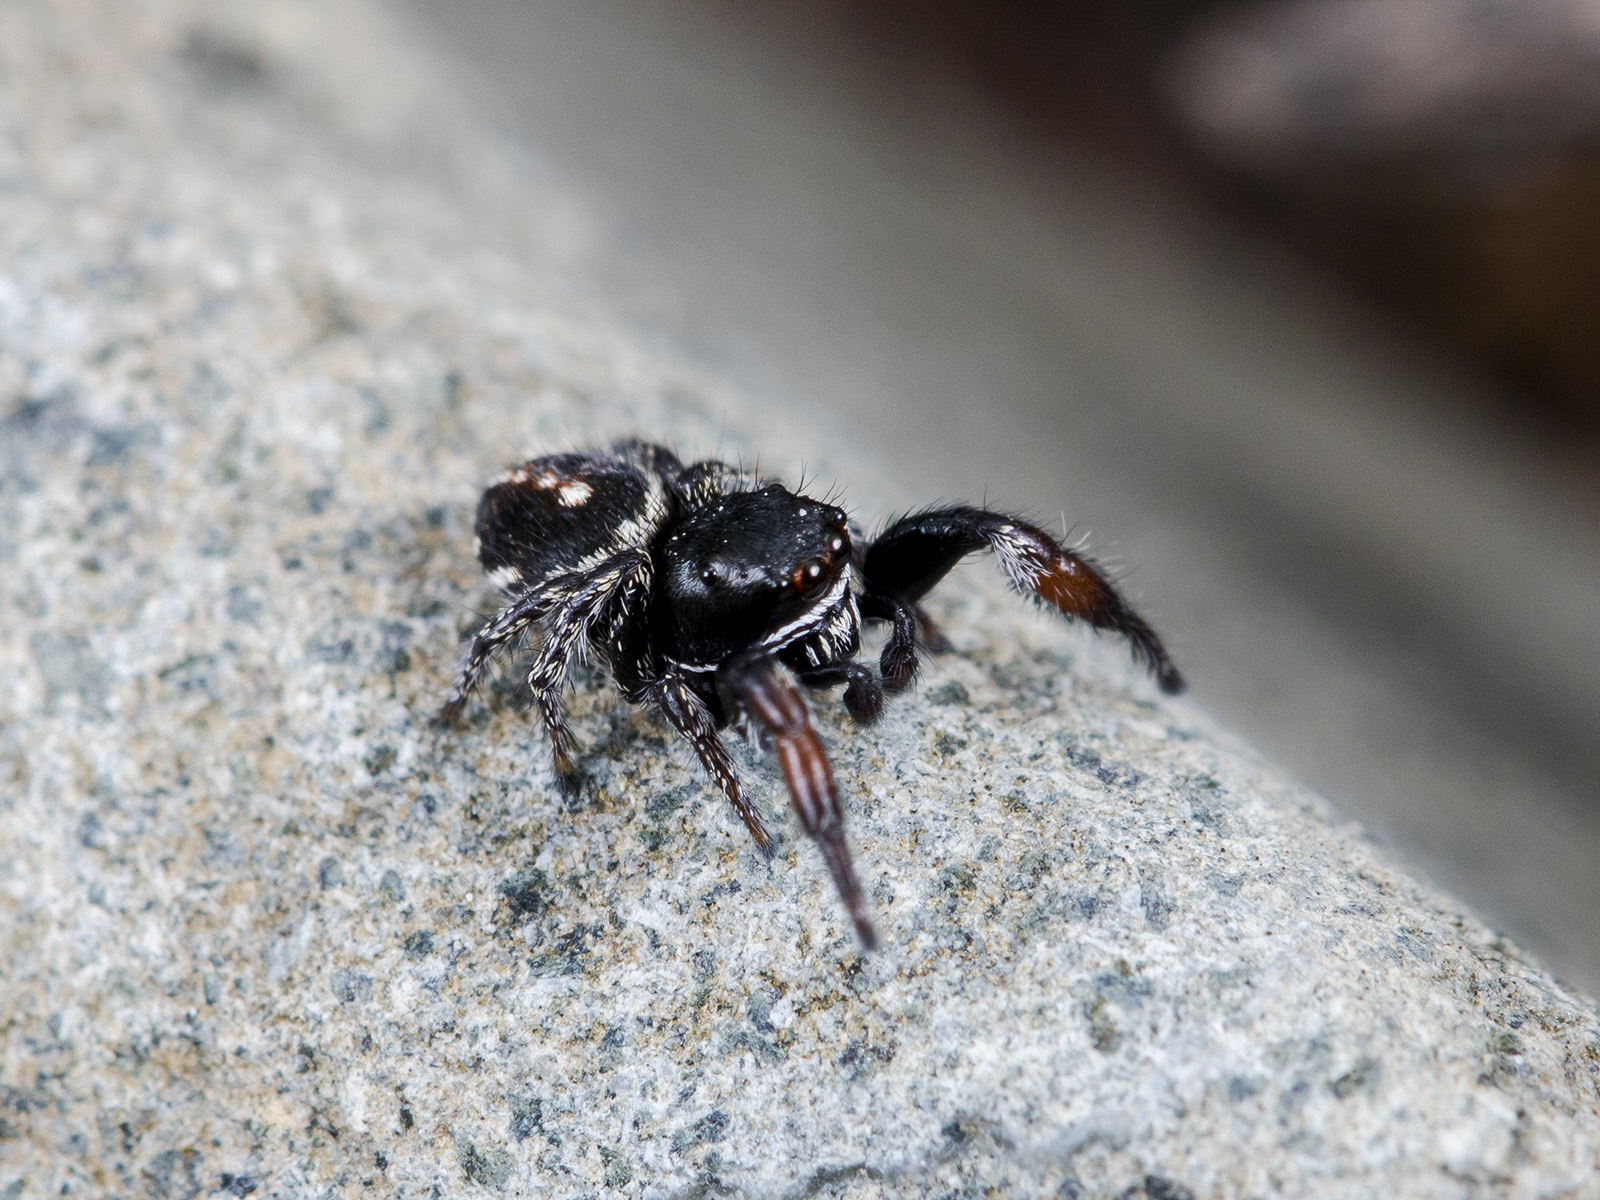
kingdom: Animalia
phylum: Arthropoda
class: Arachnida
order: Araneae
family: Salticidae
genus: Pellenes
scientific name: Pellenes allegrii
